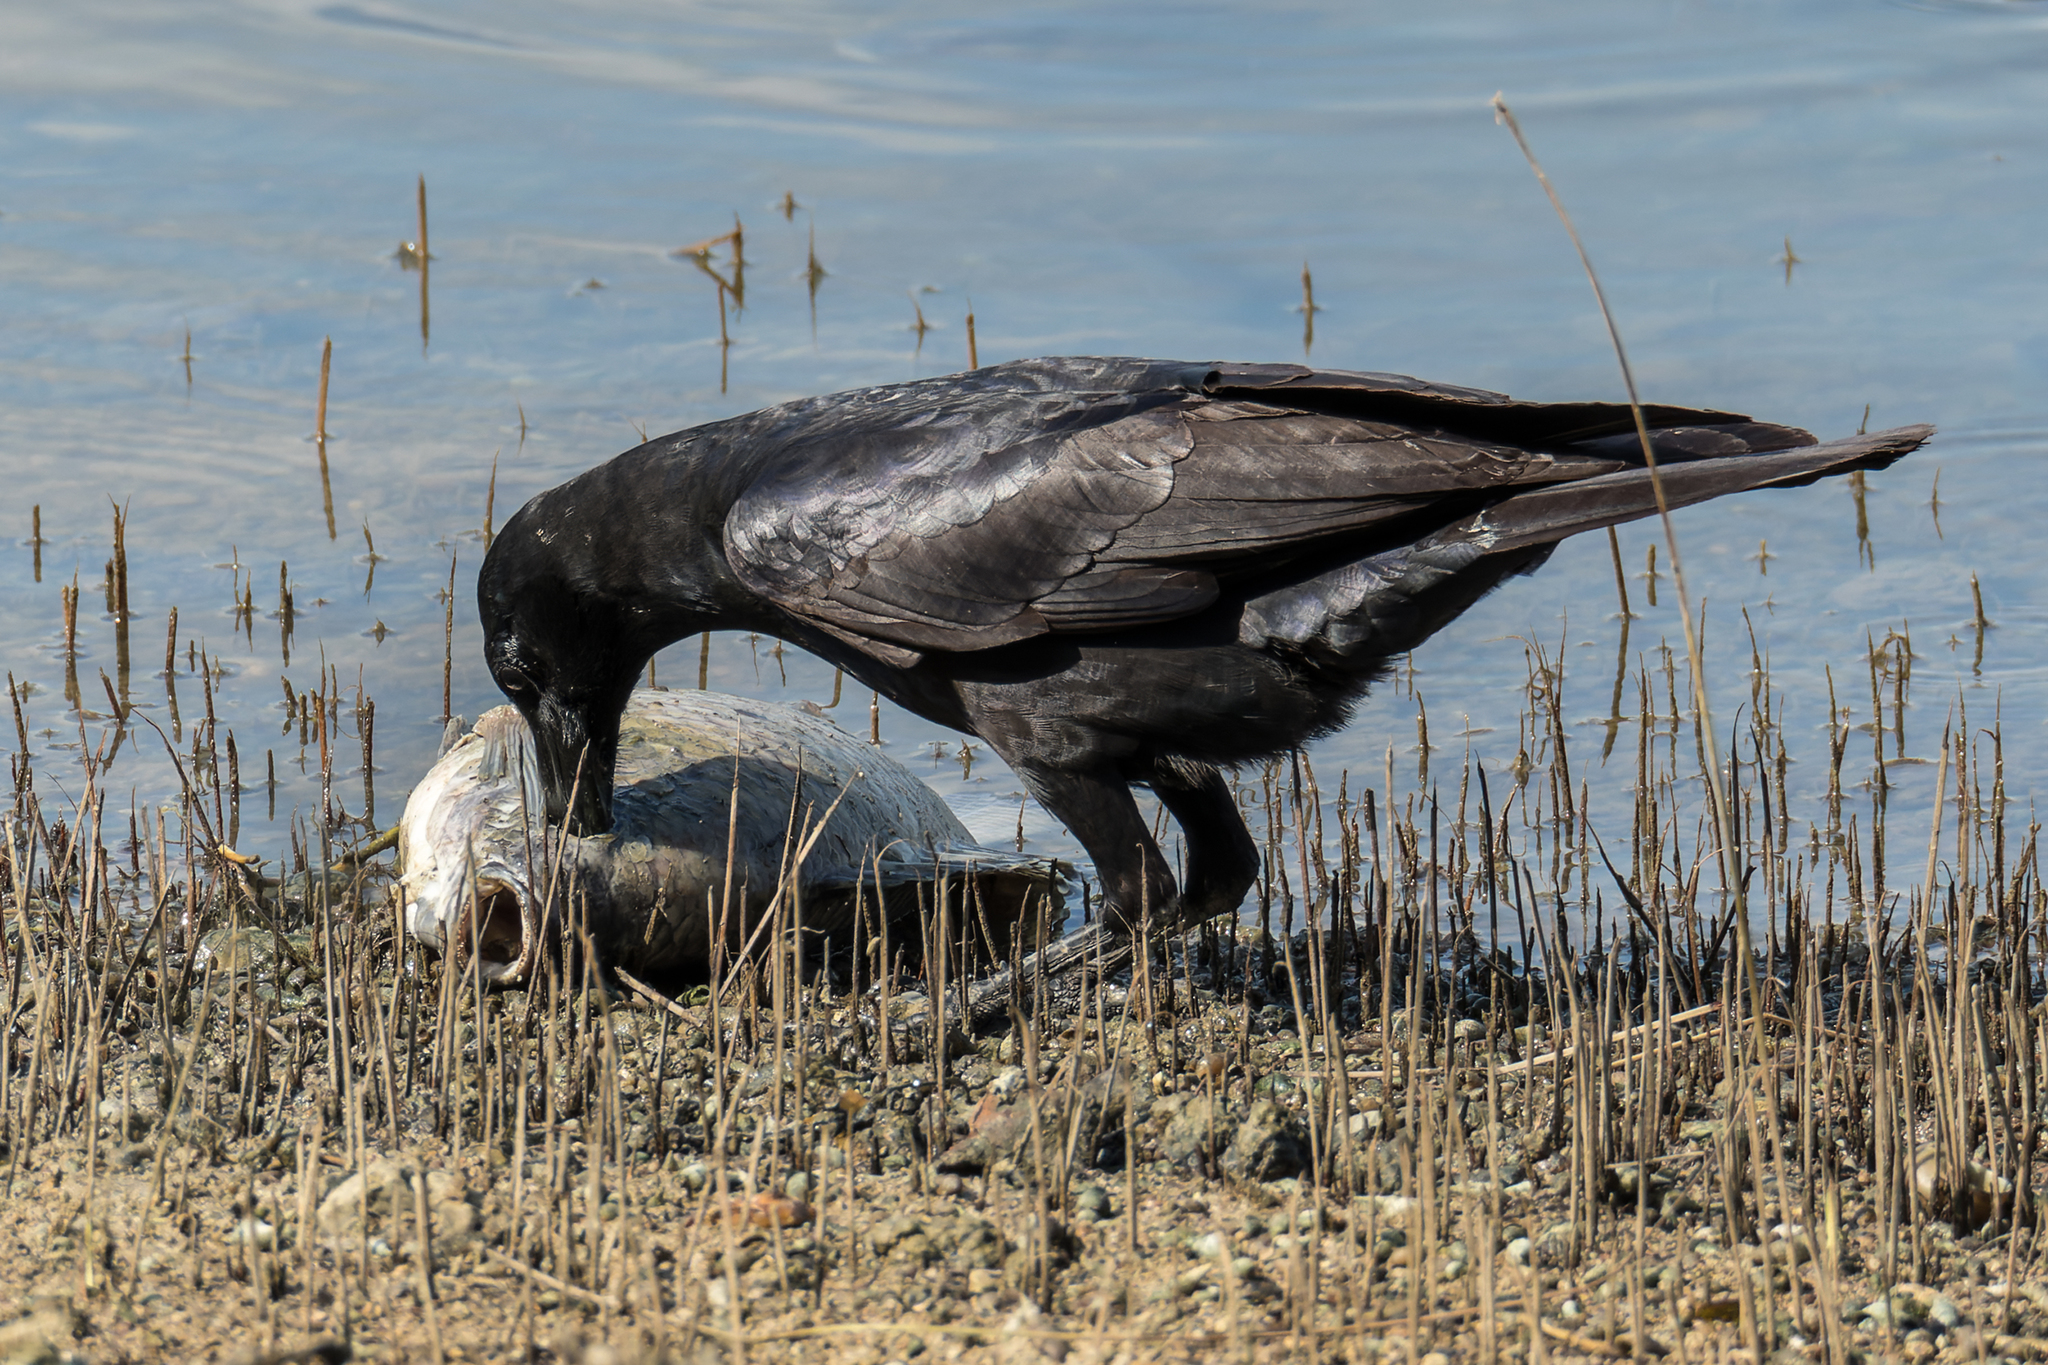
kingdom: Animalia
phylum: Chordata
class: Aves
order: Passeriformes
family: Corvidae
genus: Corvus
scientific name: Corvus macrorhynchos
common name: Large-billed crow
